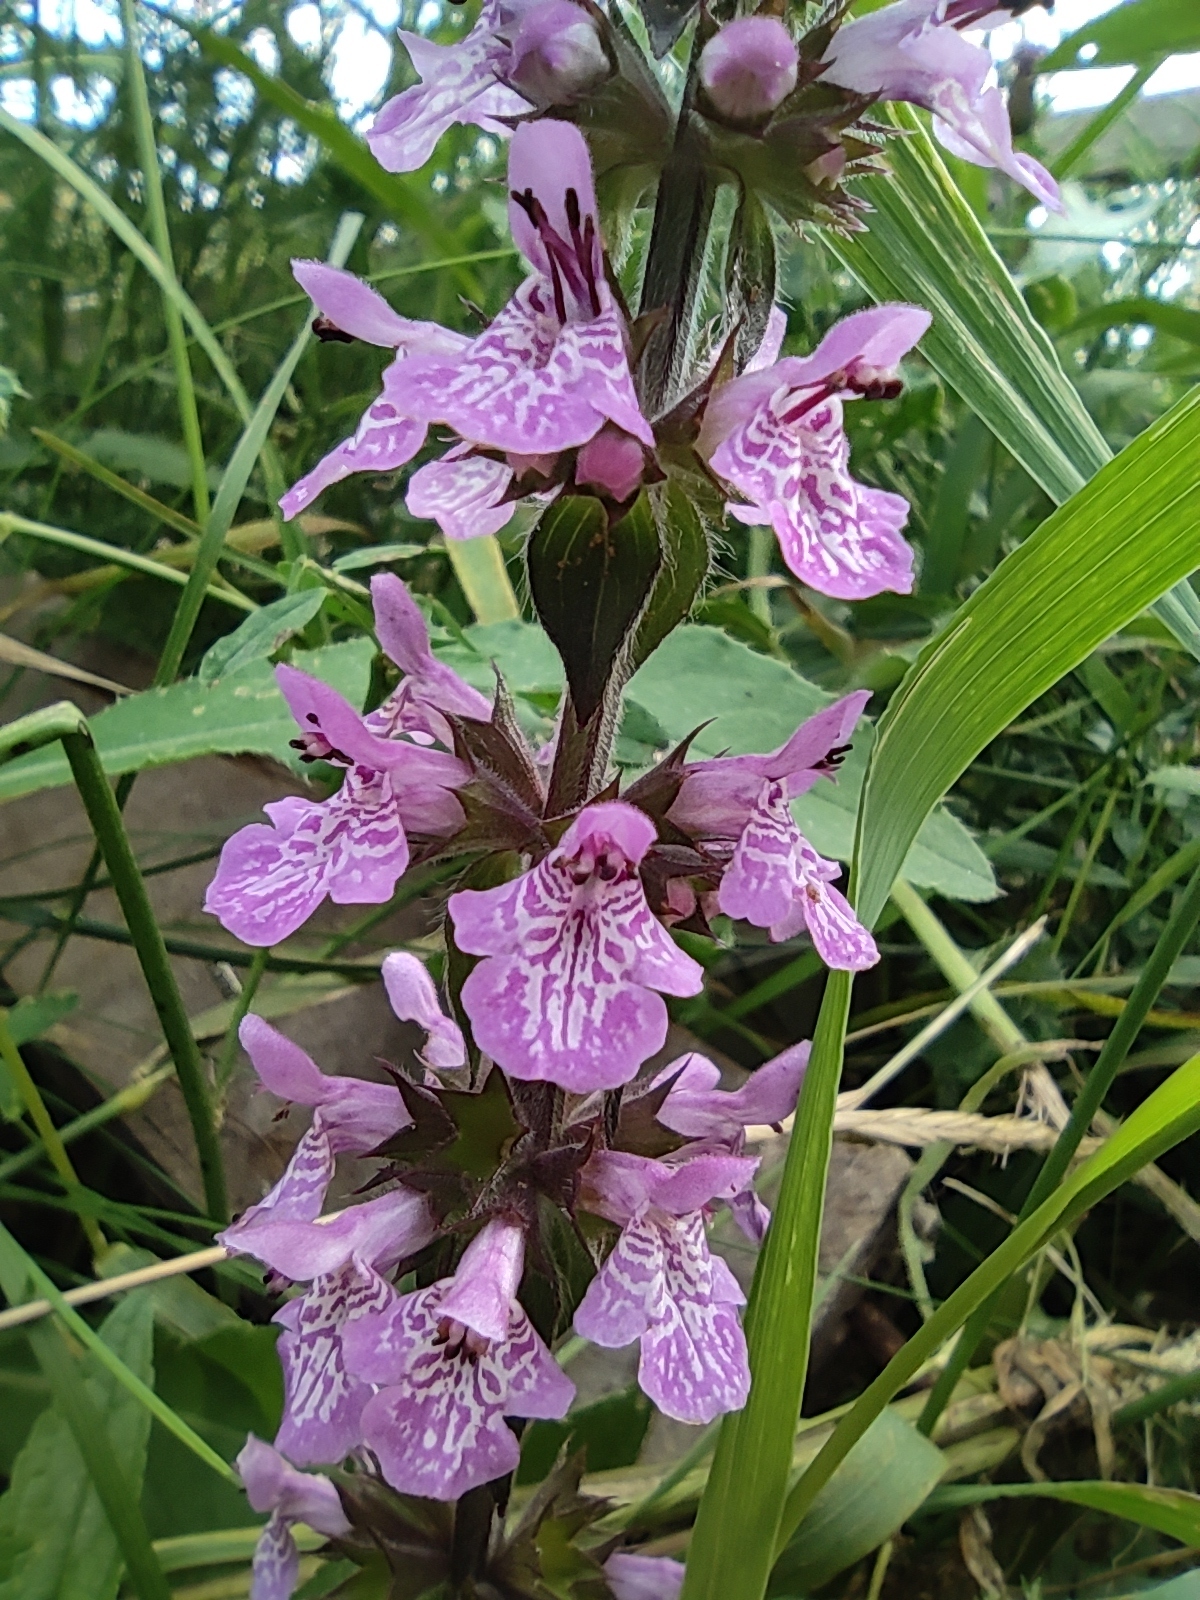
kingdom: Plantae
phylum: Tracheophyta
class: Magnoliopsida
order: Lamiales
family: Lamiaceae
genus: Stachys
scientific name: Stachys palustris
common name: Marsh woundwort
